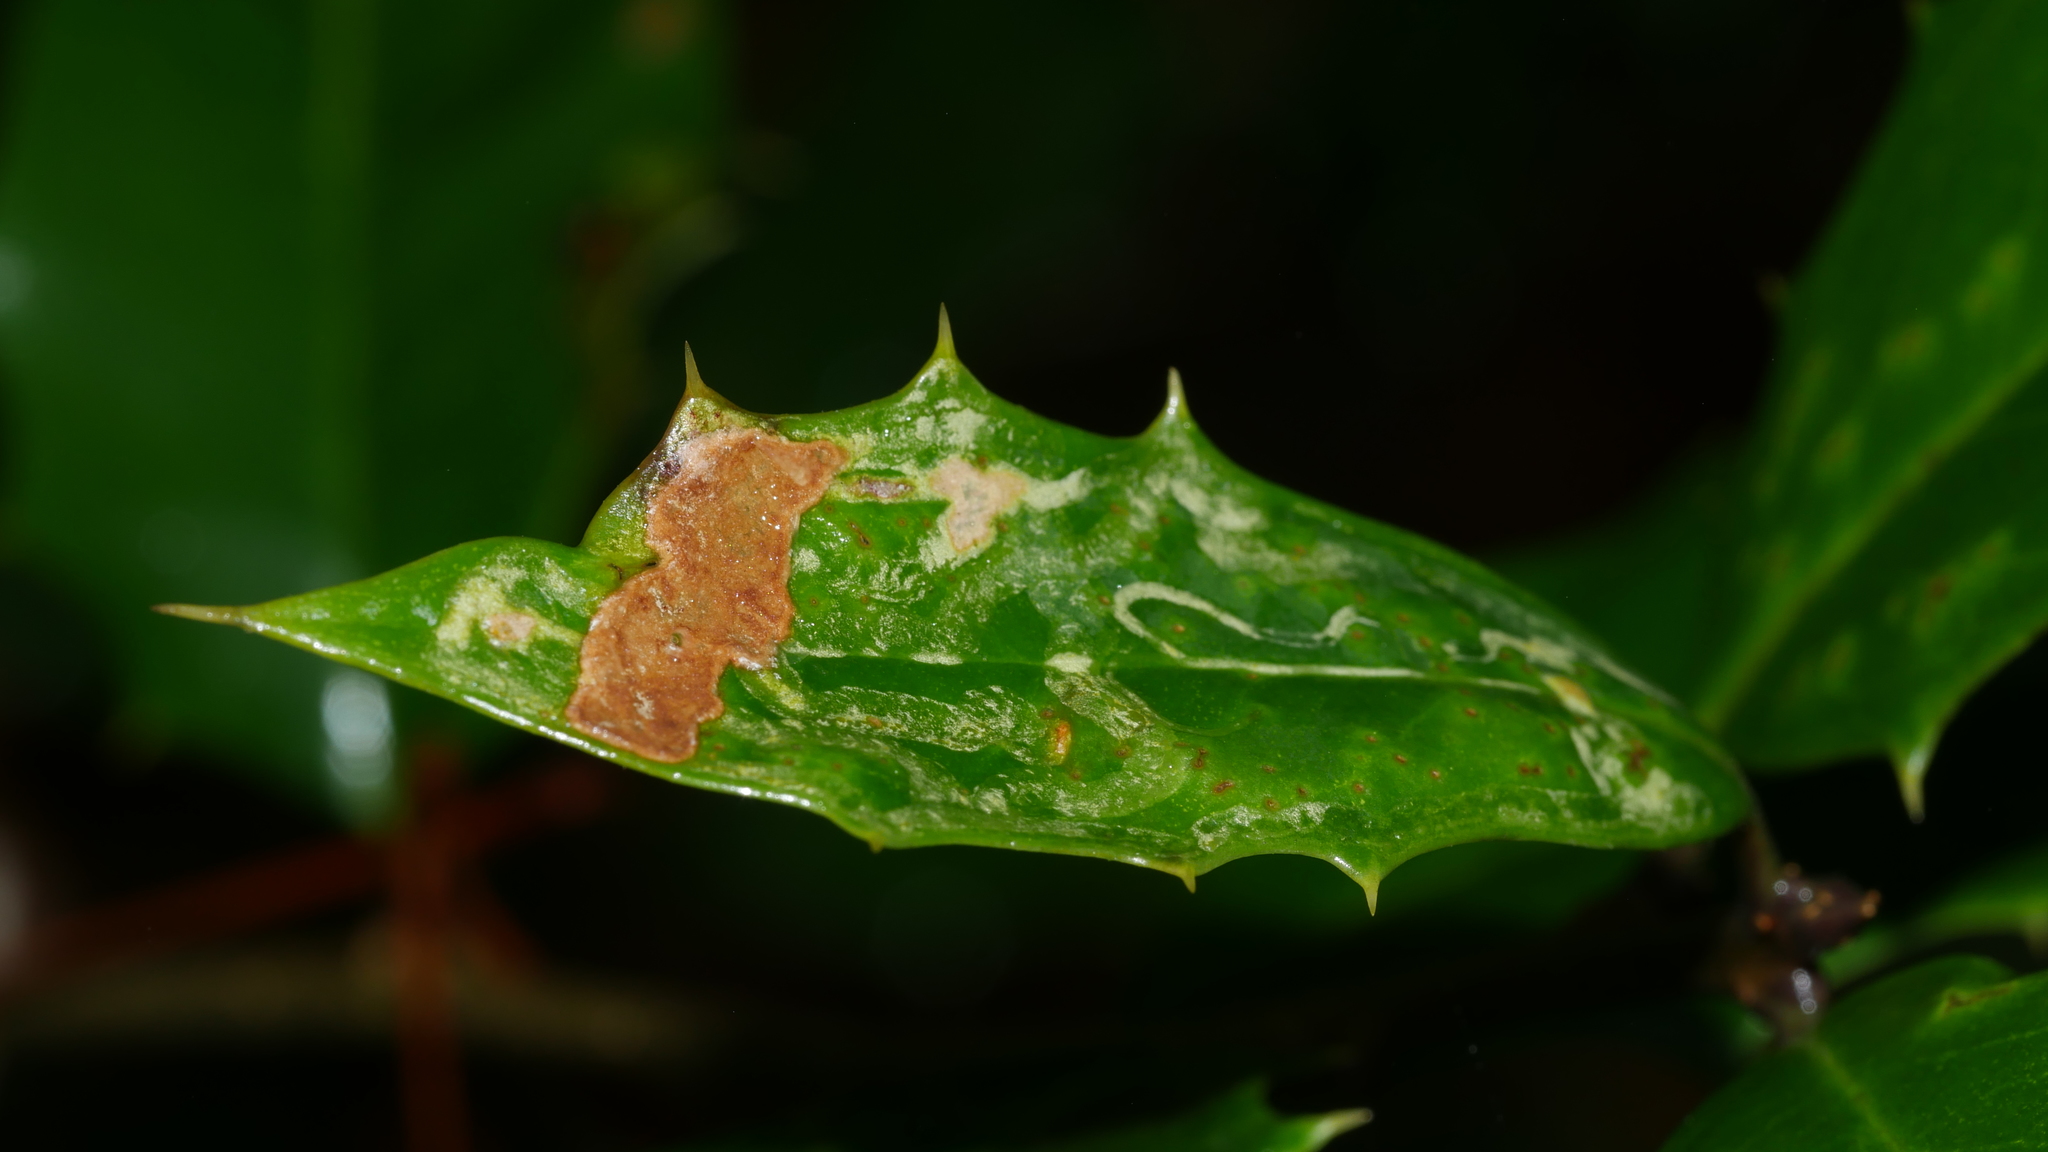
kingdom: Animalia
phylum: Arthropoda
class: Insecta
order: Diptera
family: Agromyzidae
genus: Phytomyza
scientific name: Phytomyza opacae
